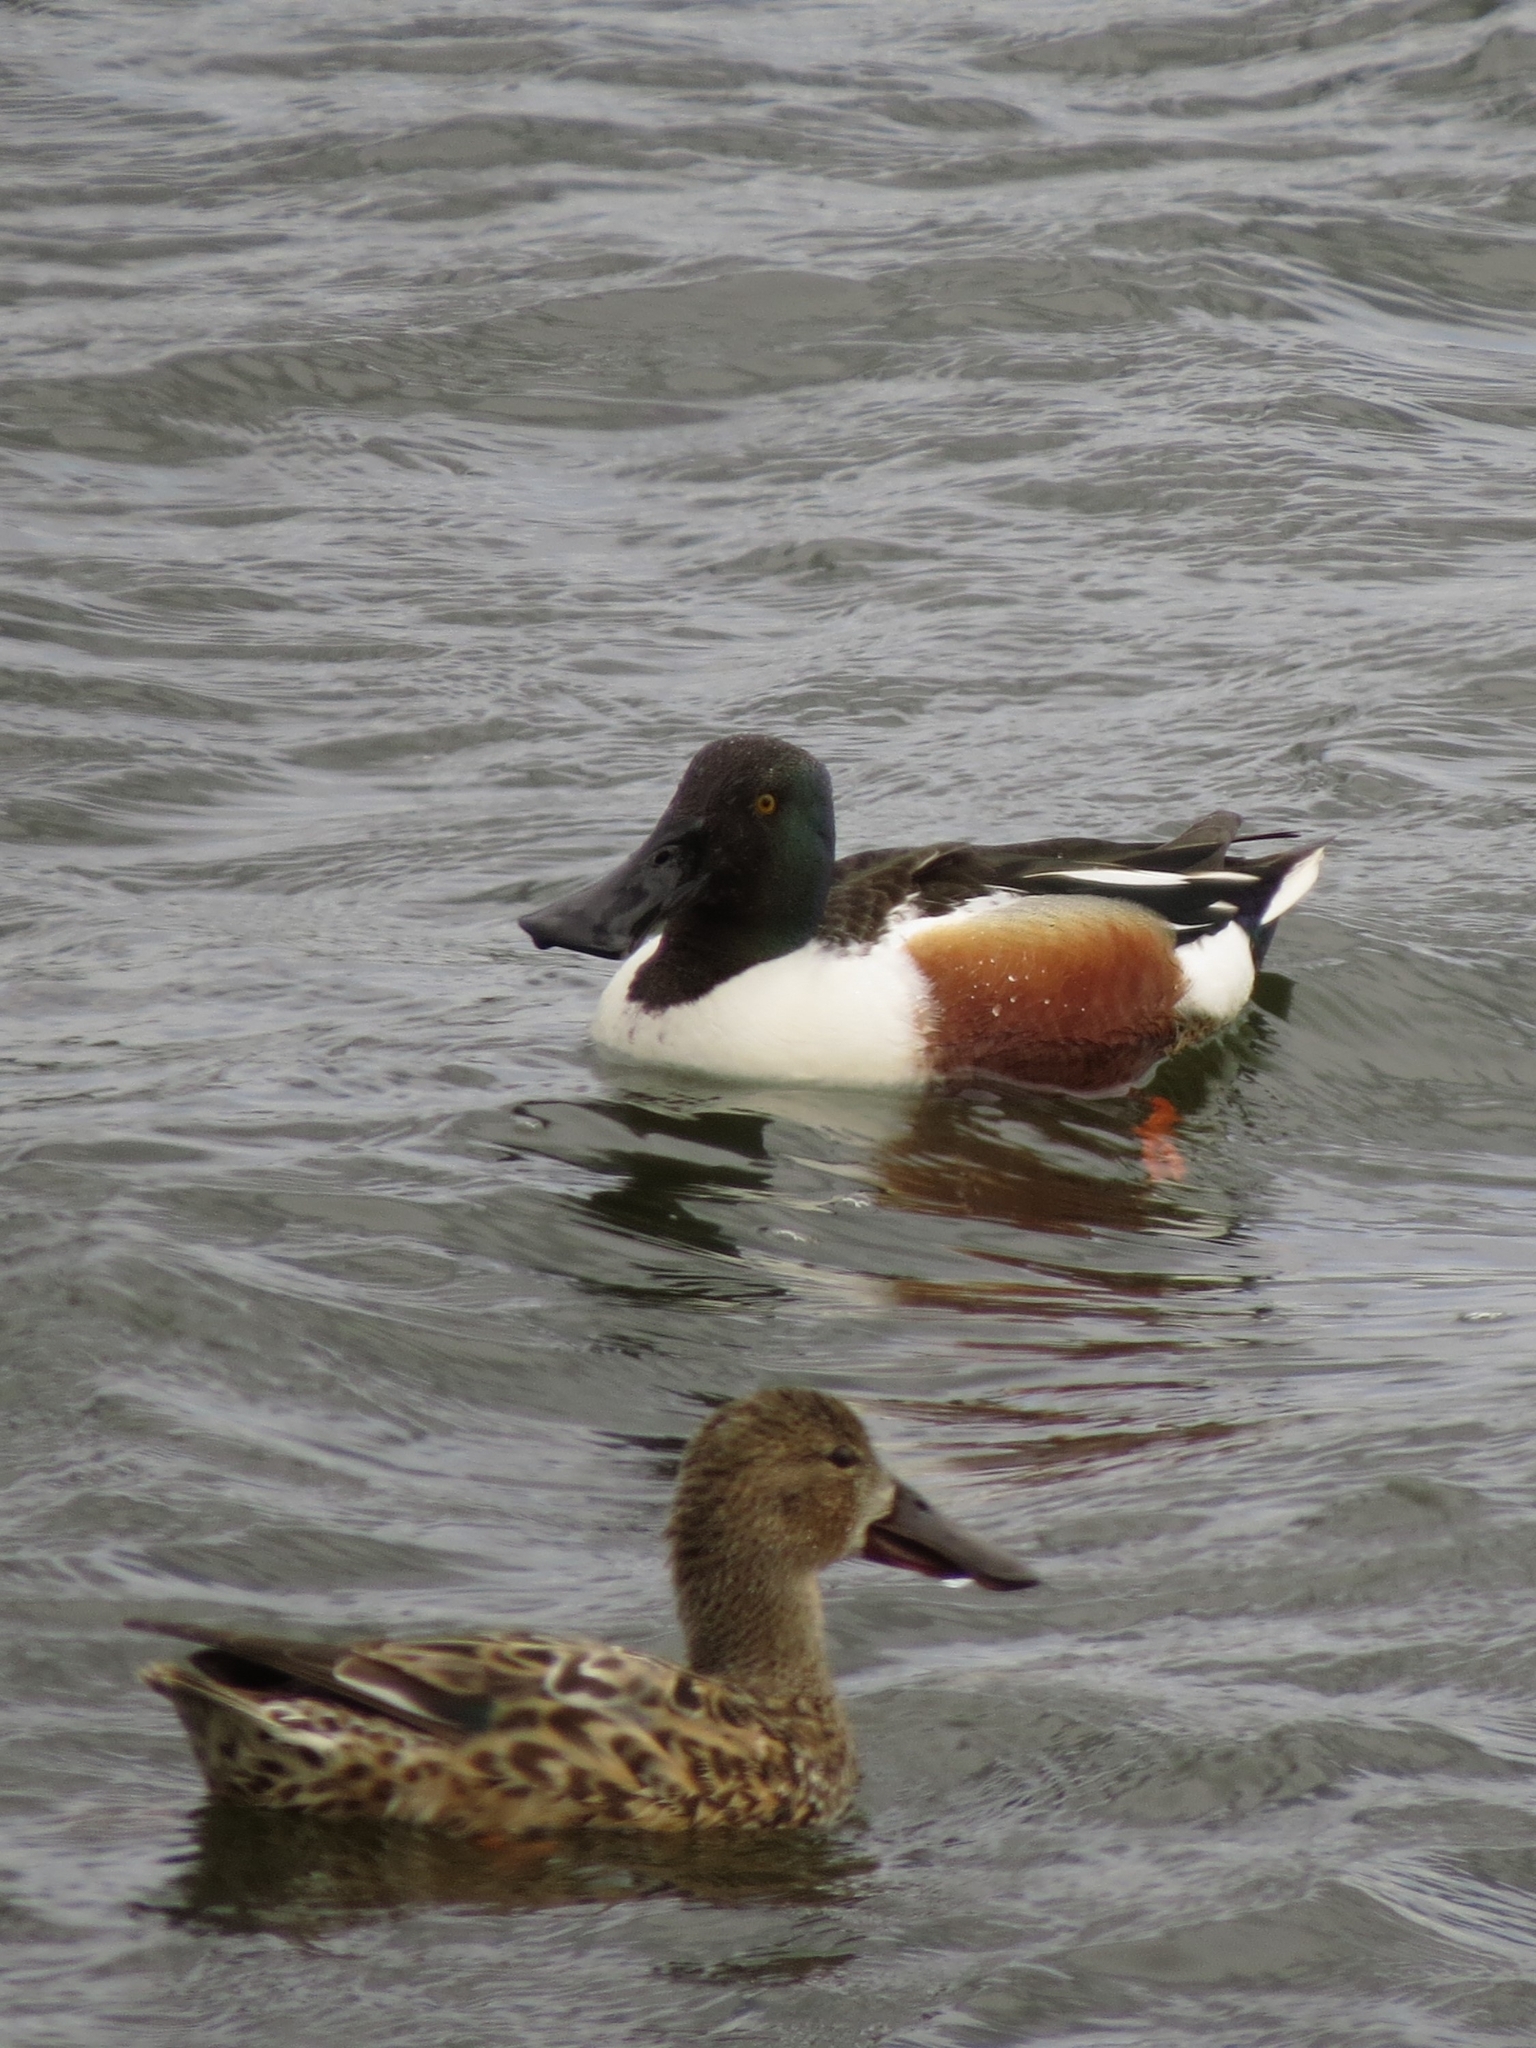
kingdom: Animalia
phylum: Chordata
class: Aves
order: Anseriformes
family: Anatidae
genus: Spatula
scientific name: Spatula clypeata
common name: Northern shoveler
